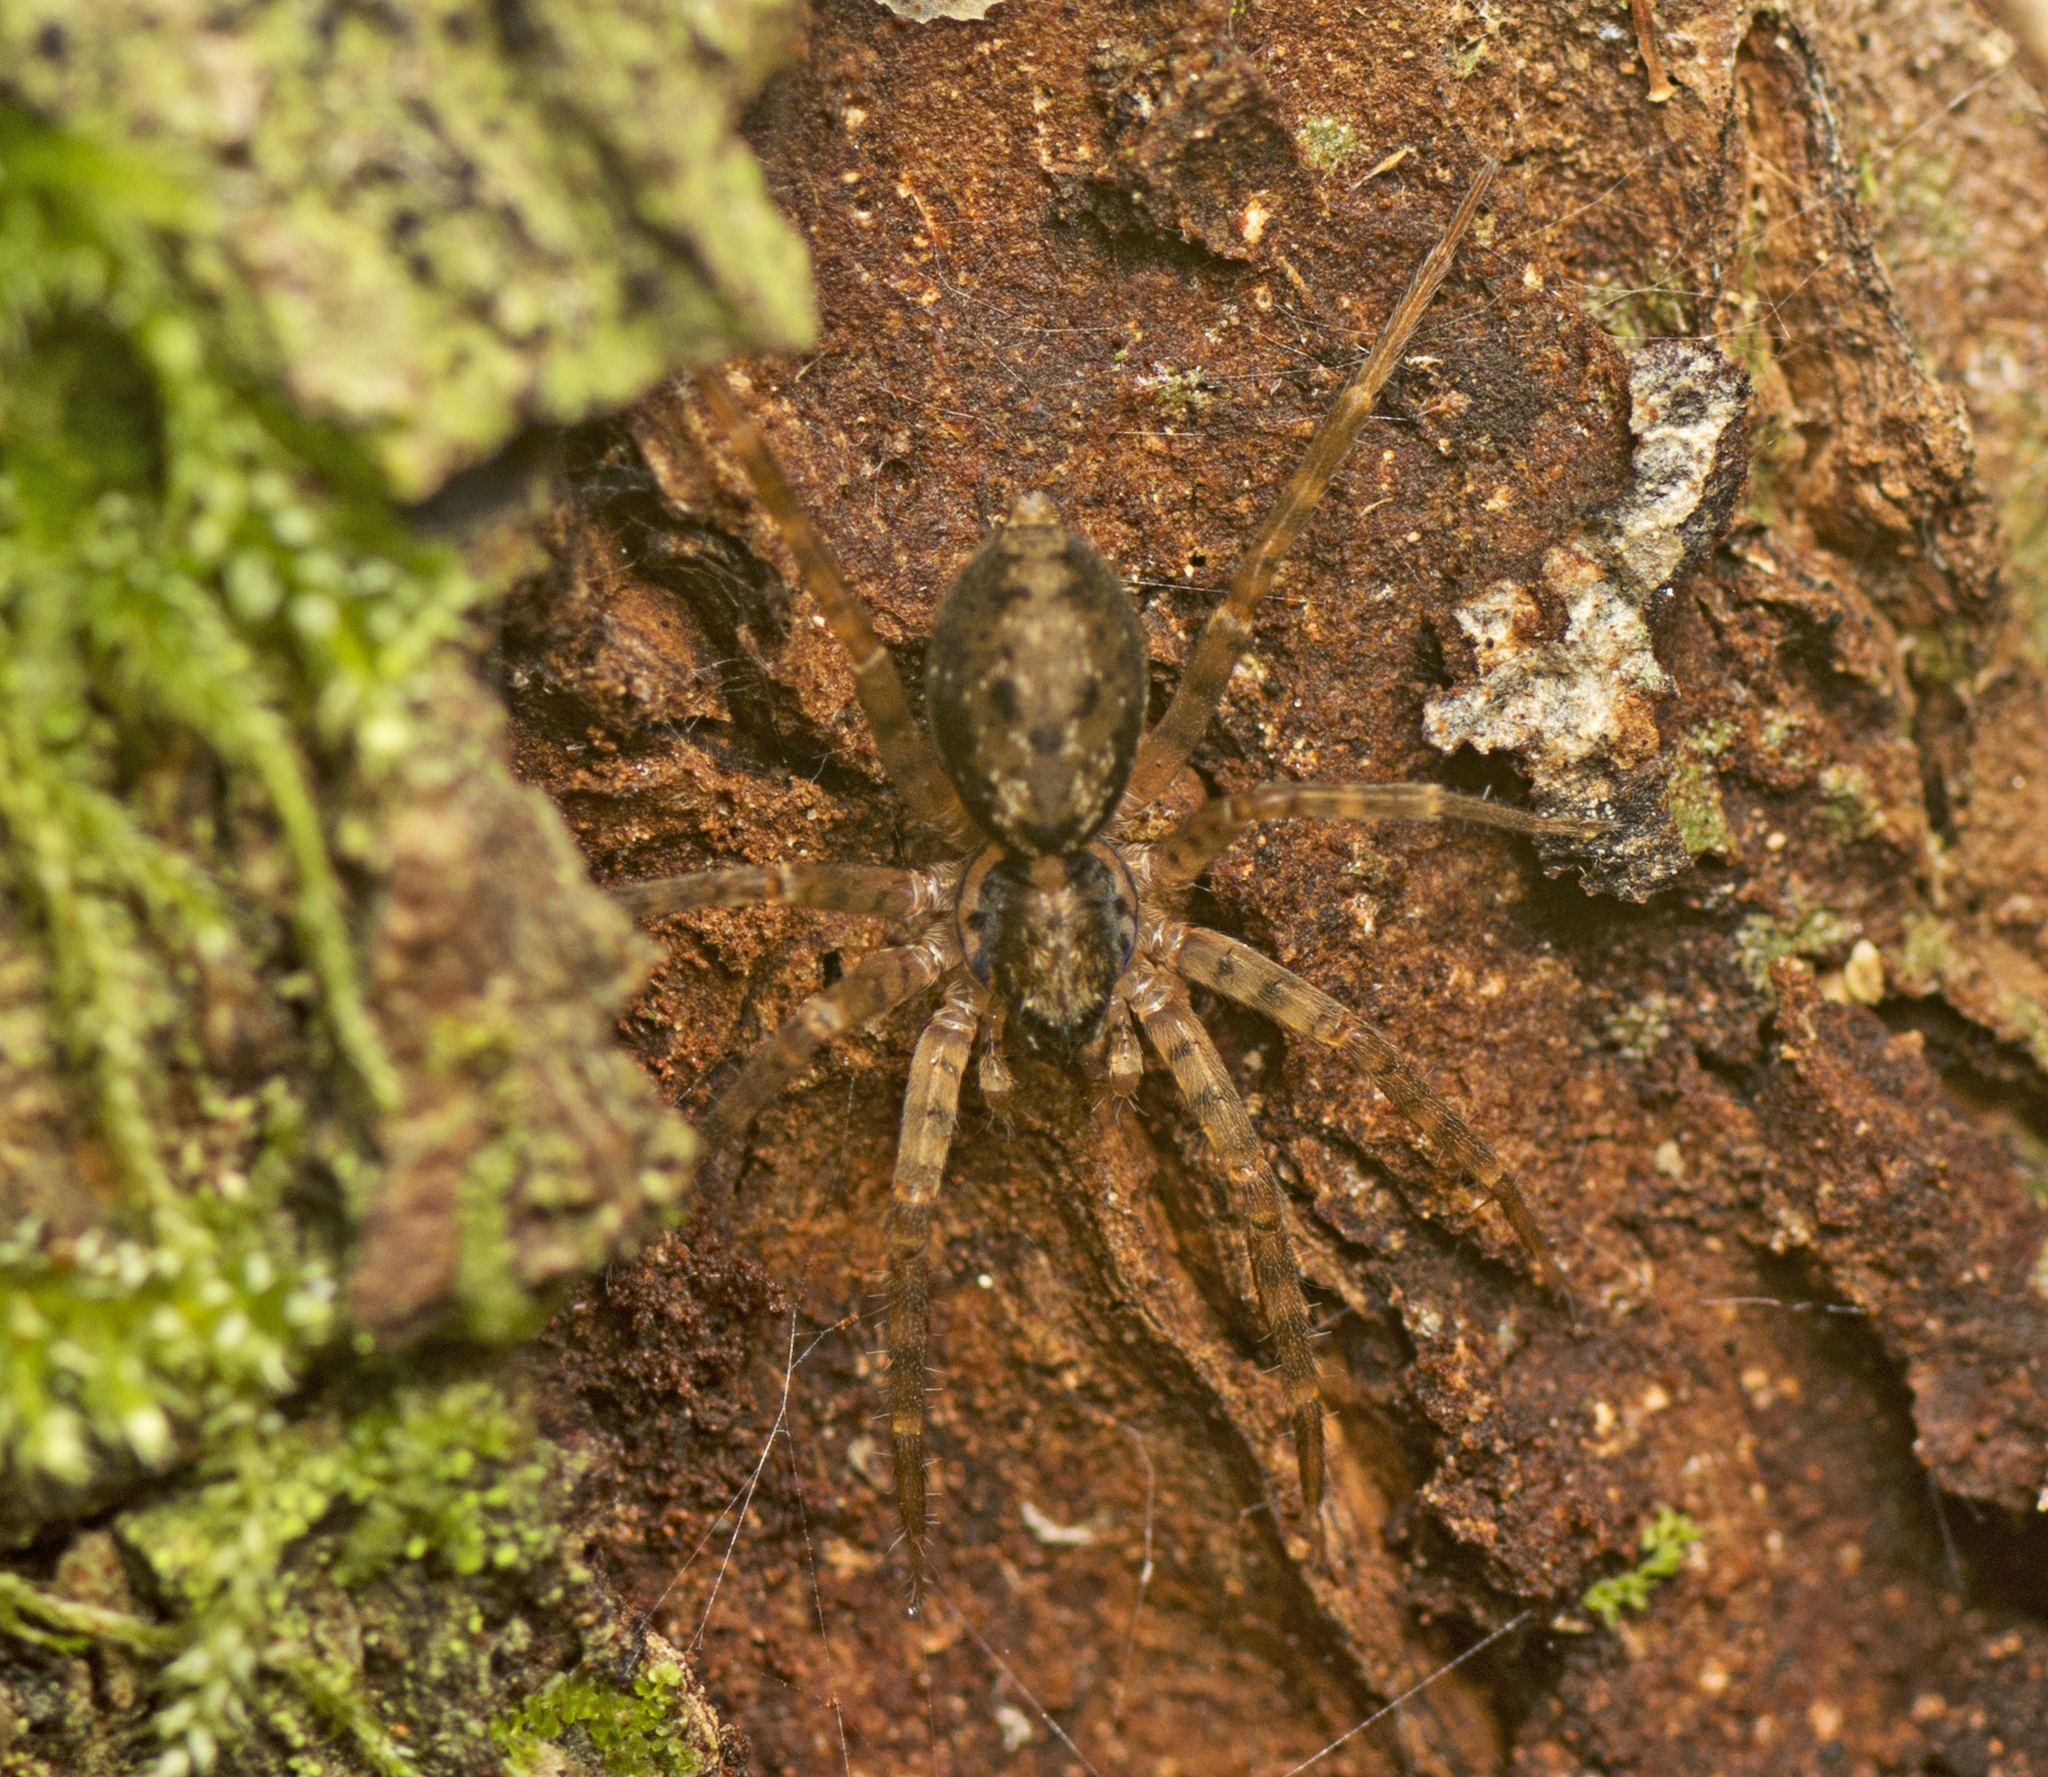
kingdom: Animalia
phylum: Arthropoda
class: Arachnida
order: Araneae
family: Toxopidae
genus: Toxopsoides
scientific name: Toxopsoides erici
